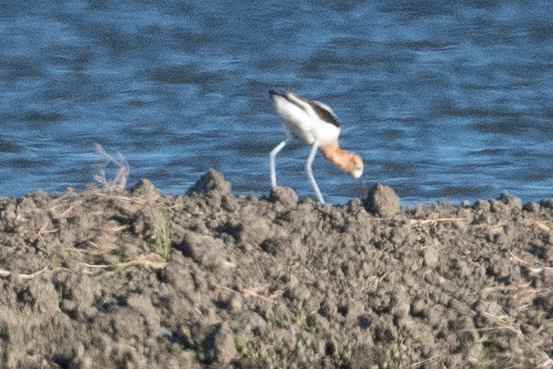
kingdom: Animalia
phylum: Chordata
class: Aves
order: Charadriiformes
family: Recurvirostridae
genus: Recurvirostra
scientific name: Recurvirostra americana
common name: American avocet
